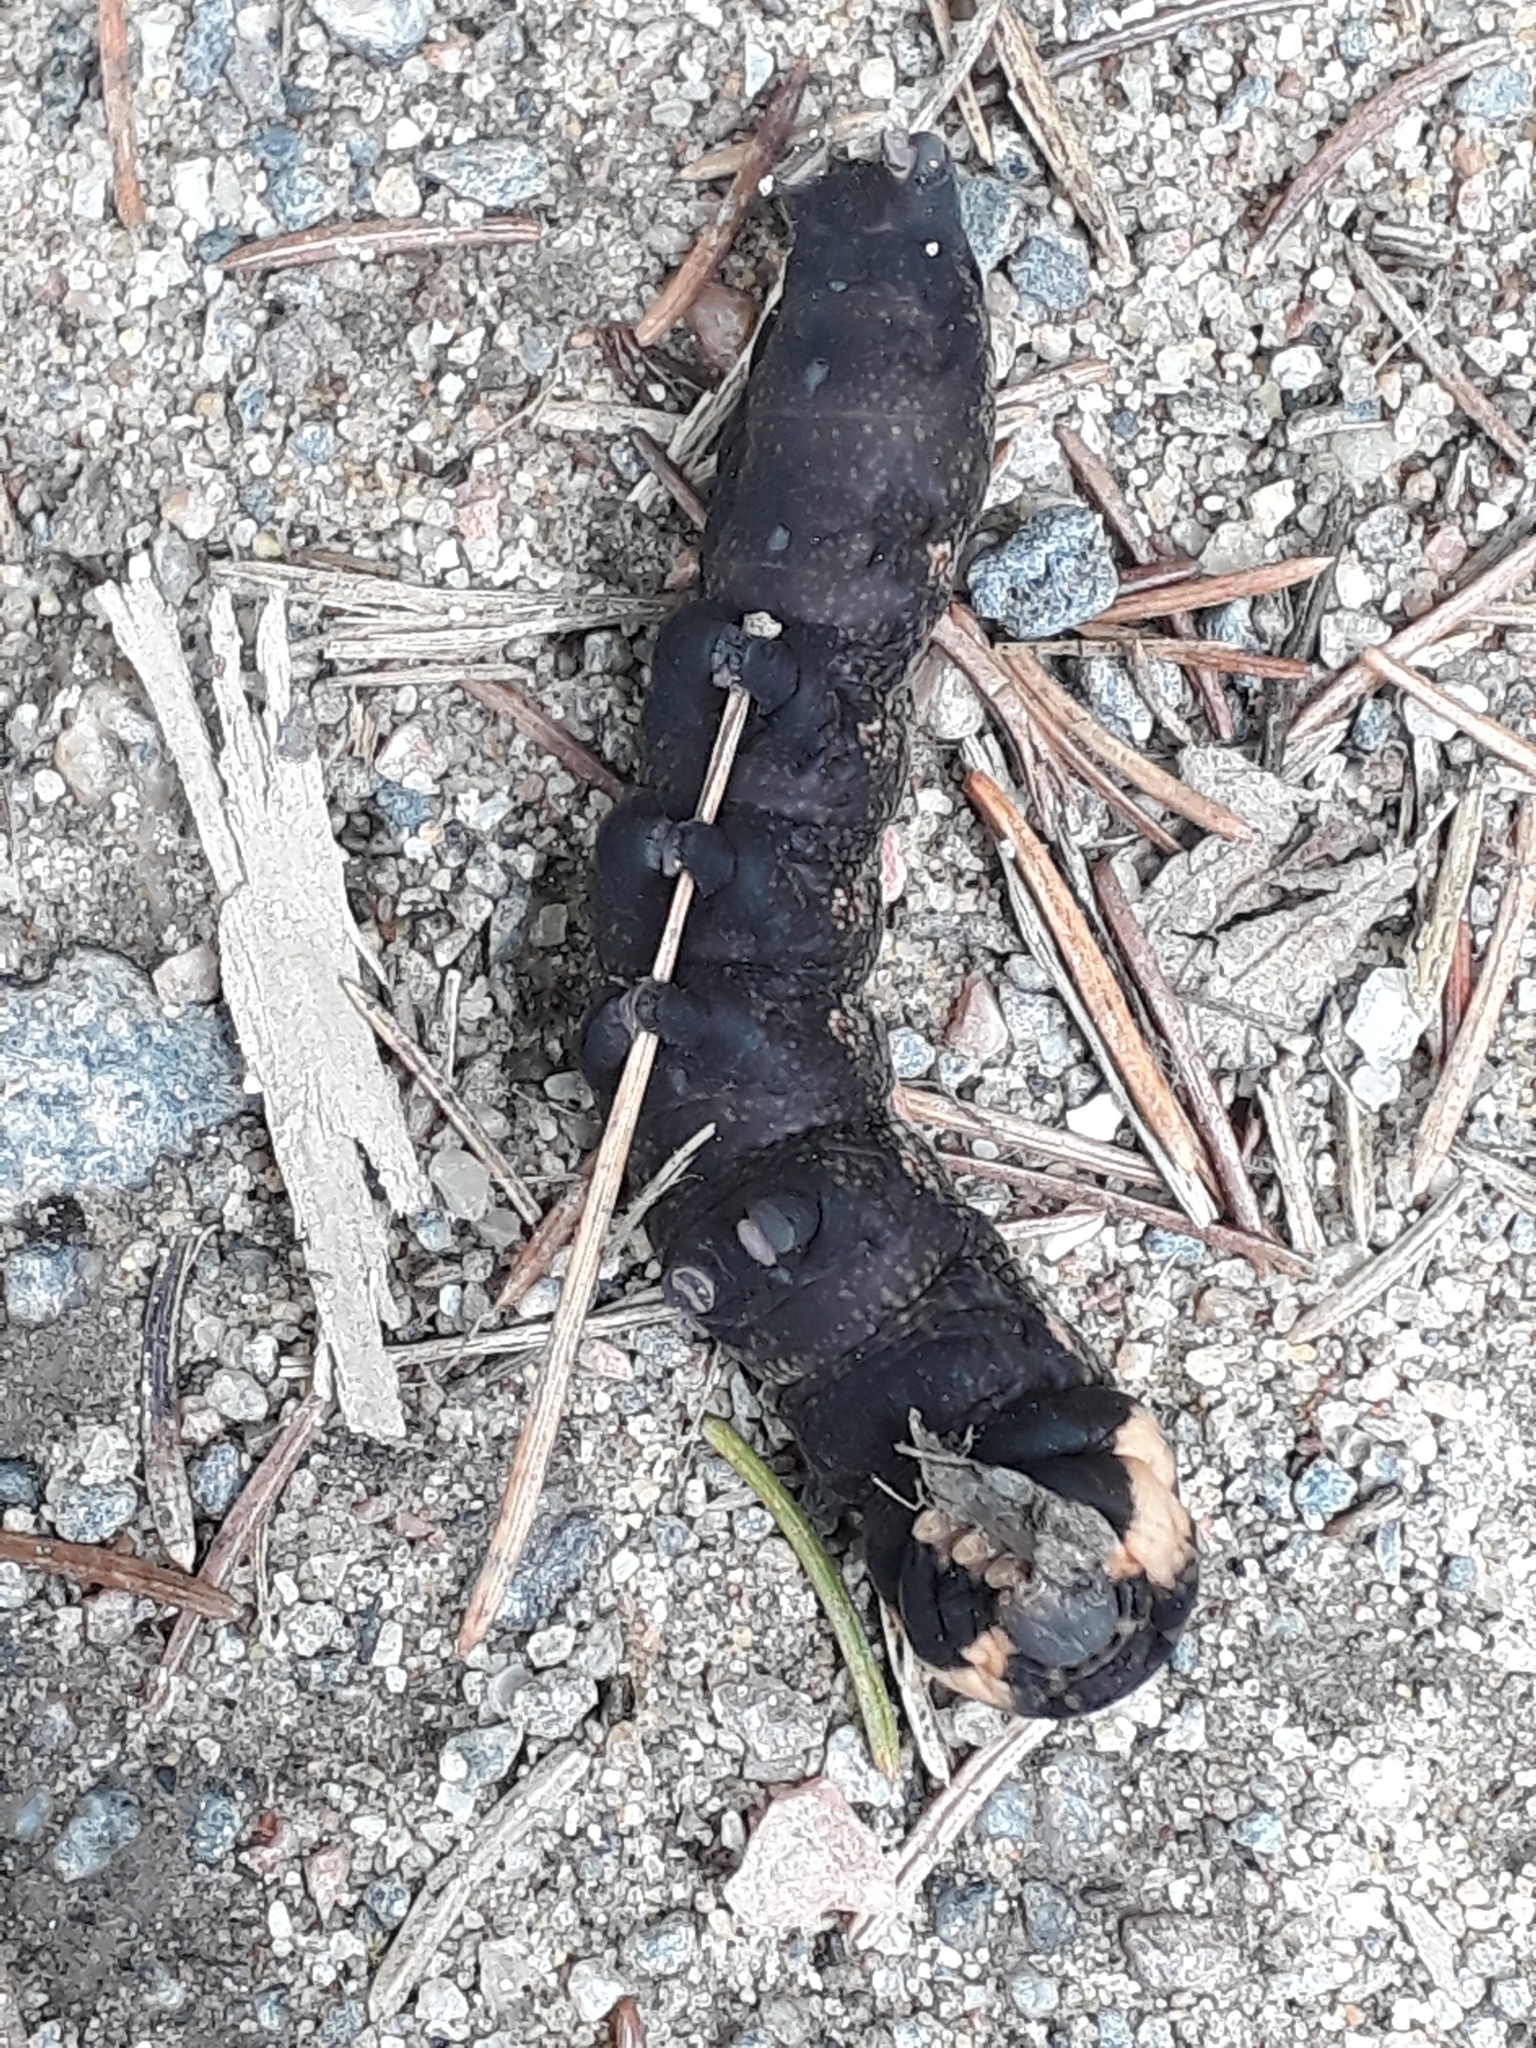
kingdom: Animalia
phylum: Arthropoda
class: Insecta
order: Lepidoptera
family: Sphingidae
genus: Deilephila
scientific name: Deilephila elpenor
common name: Elephant hawk-moth
